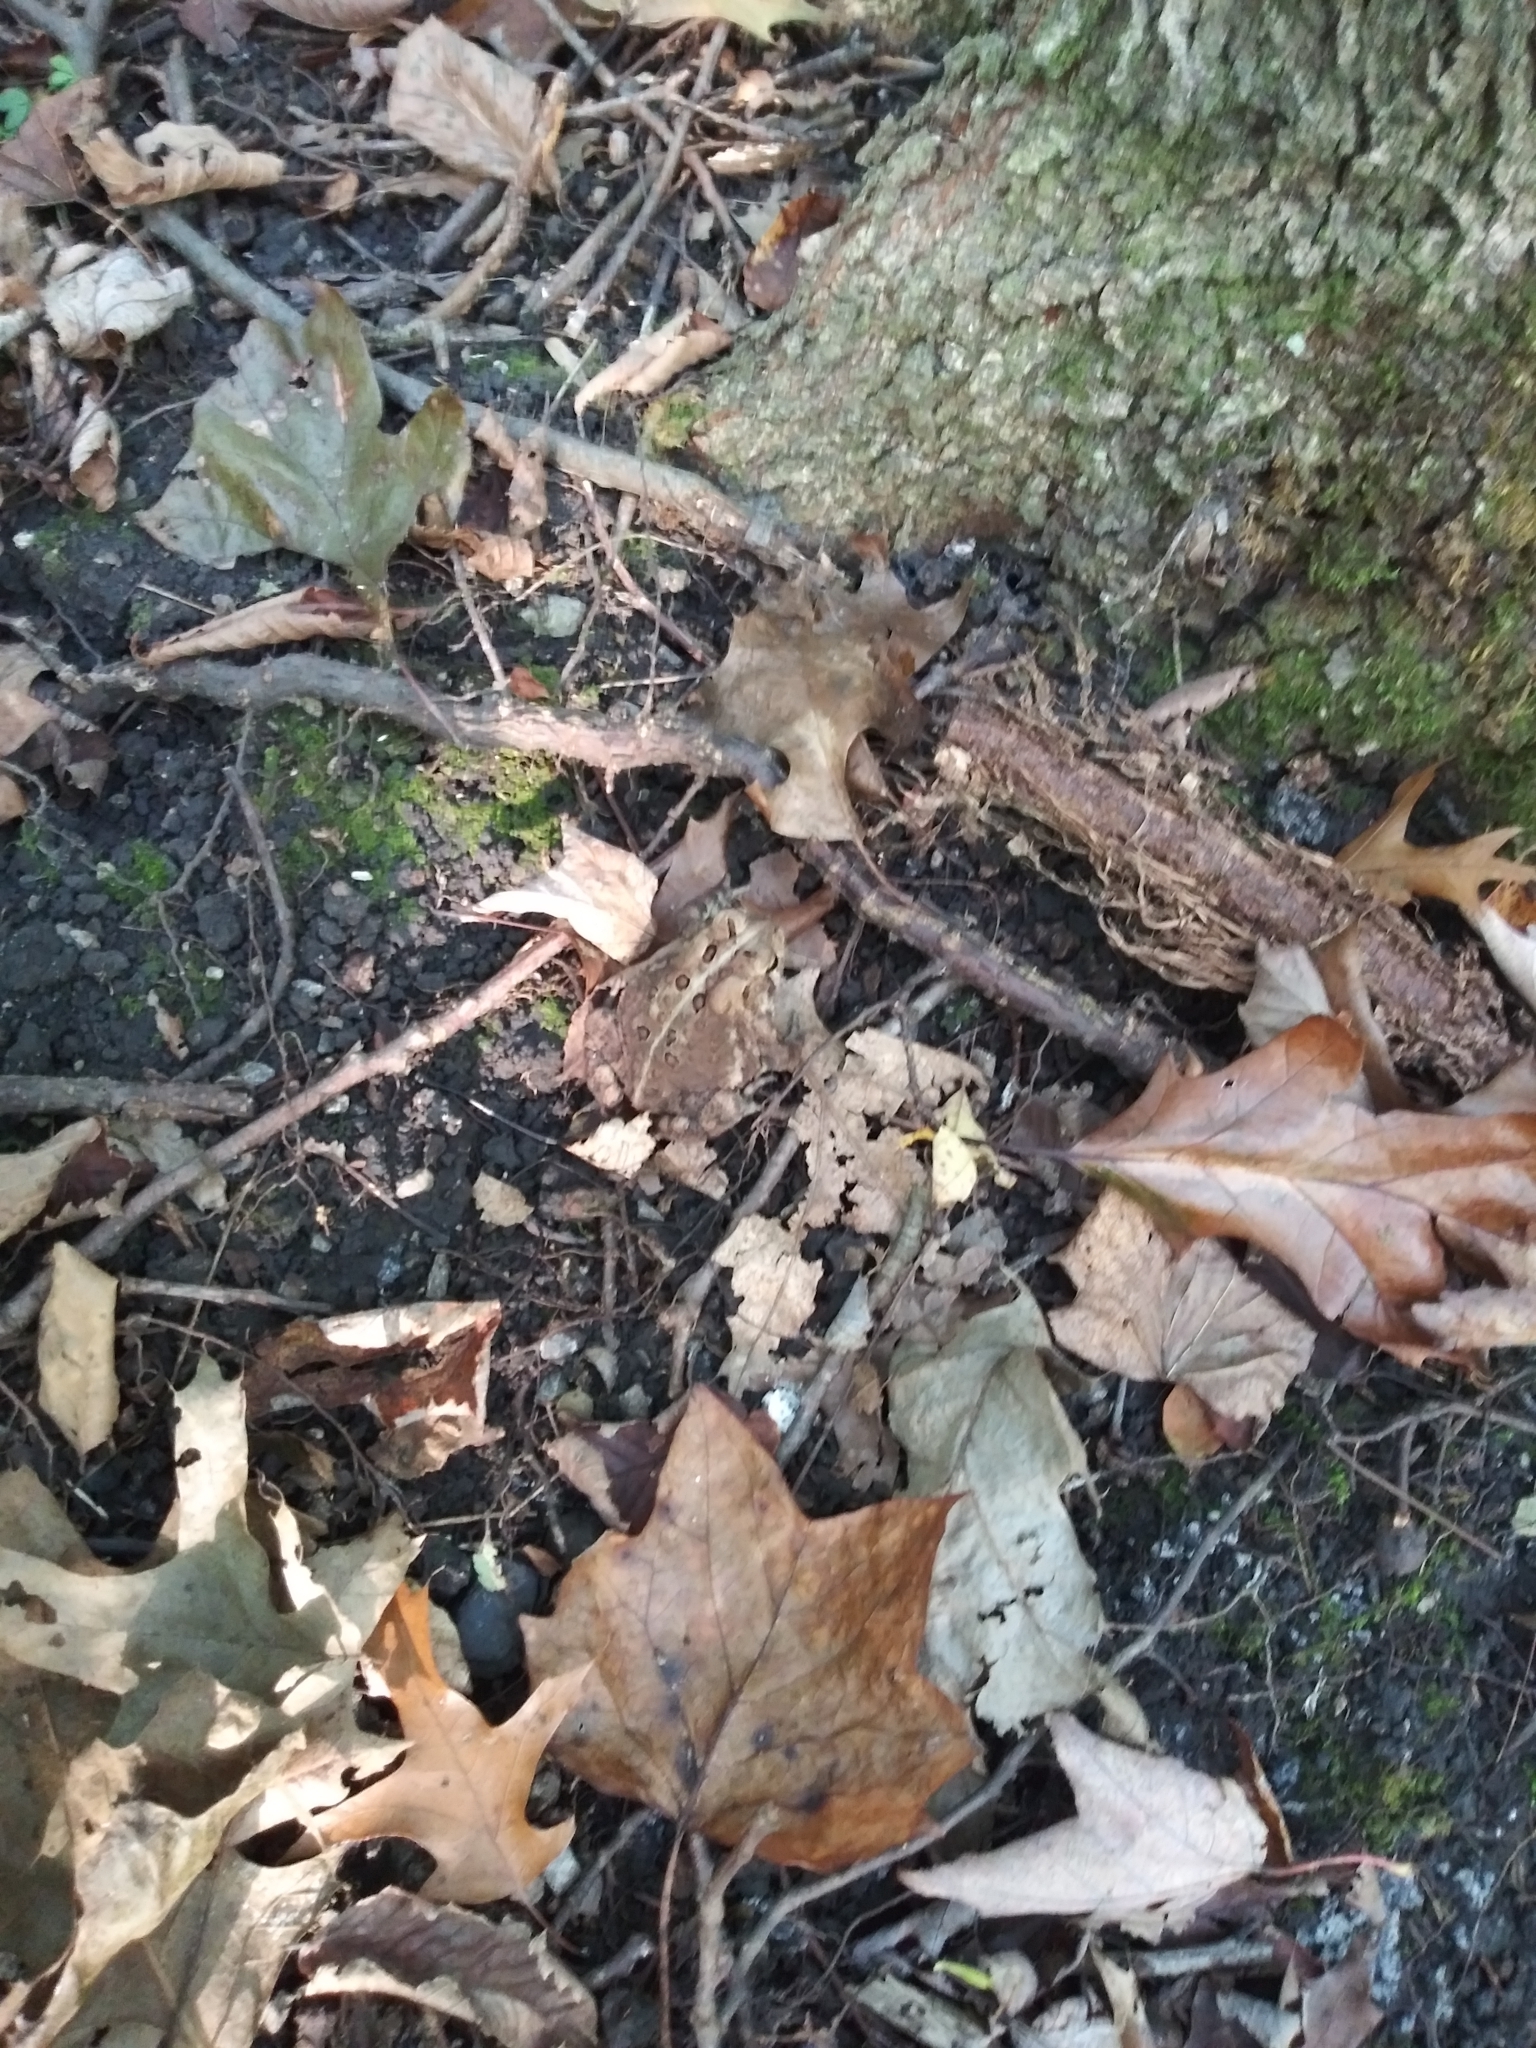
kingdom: Animalia
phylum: Chordata
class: Amphibia
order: Anura
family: Bufonidae
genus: Anaxyrus
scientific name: Anaxyrus americanus
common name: American toad
